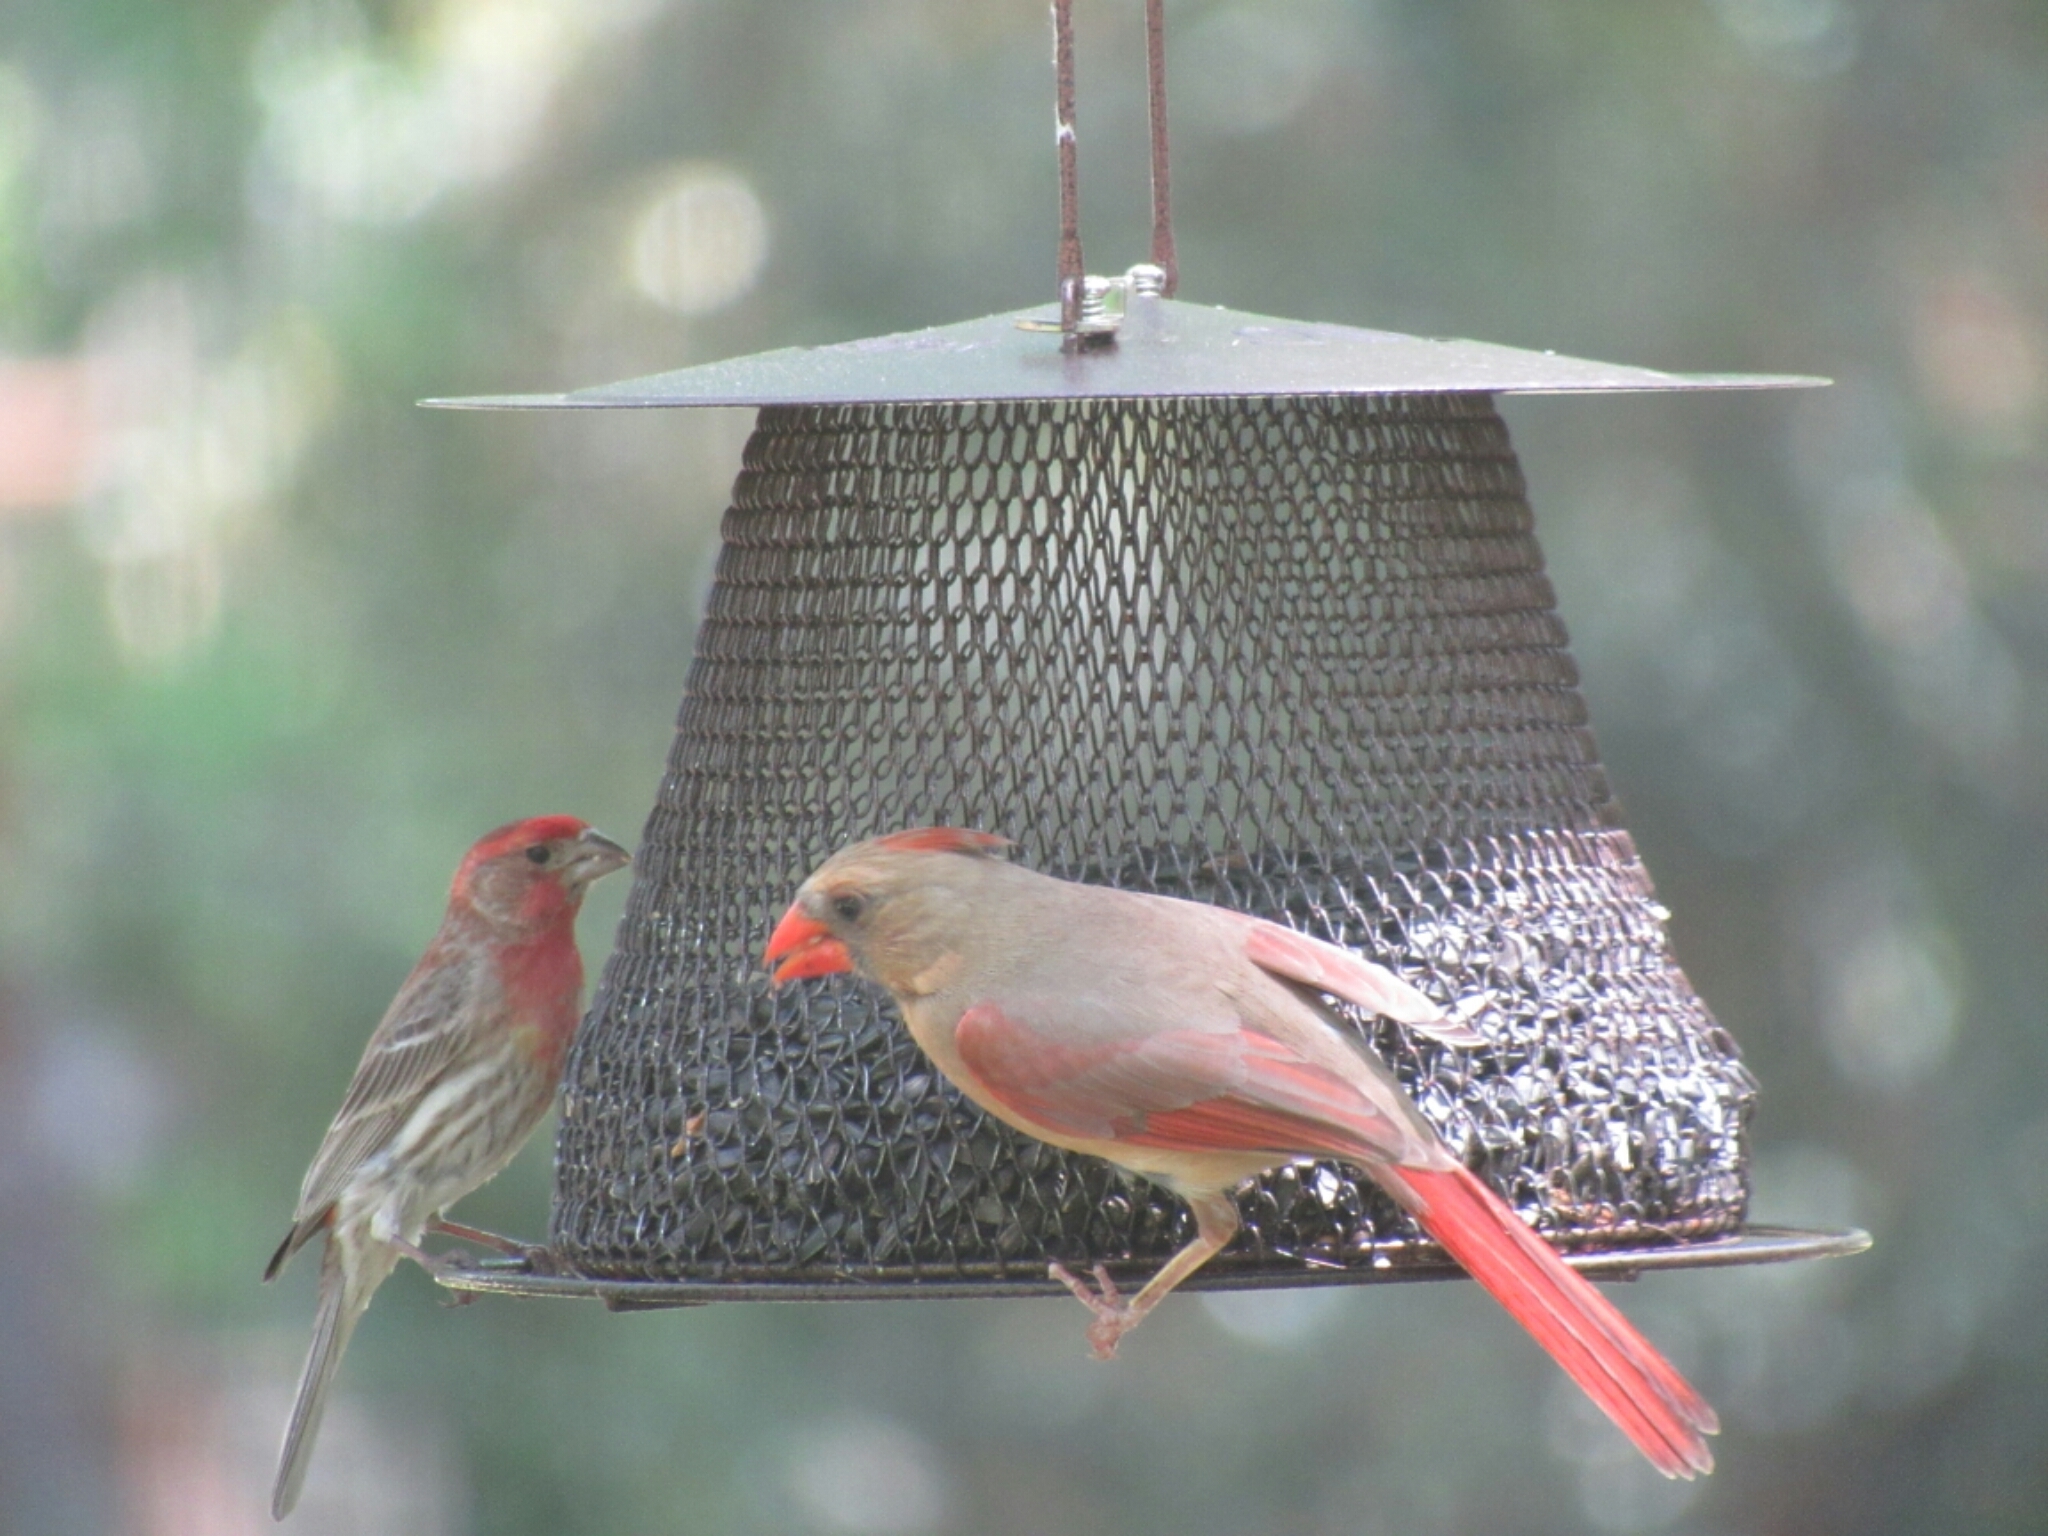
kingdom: Animalia
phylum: Chordata
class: Aves
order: Passeriformes
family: Cardinalidae
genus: Cardinalis
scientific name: Cardinalis cardinalis
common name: Northern cardinal
